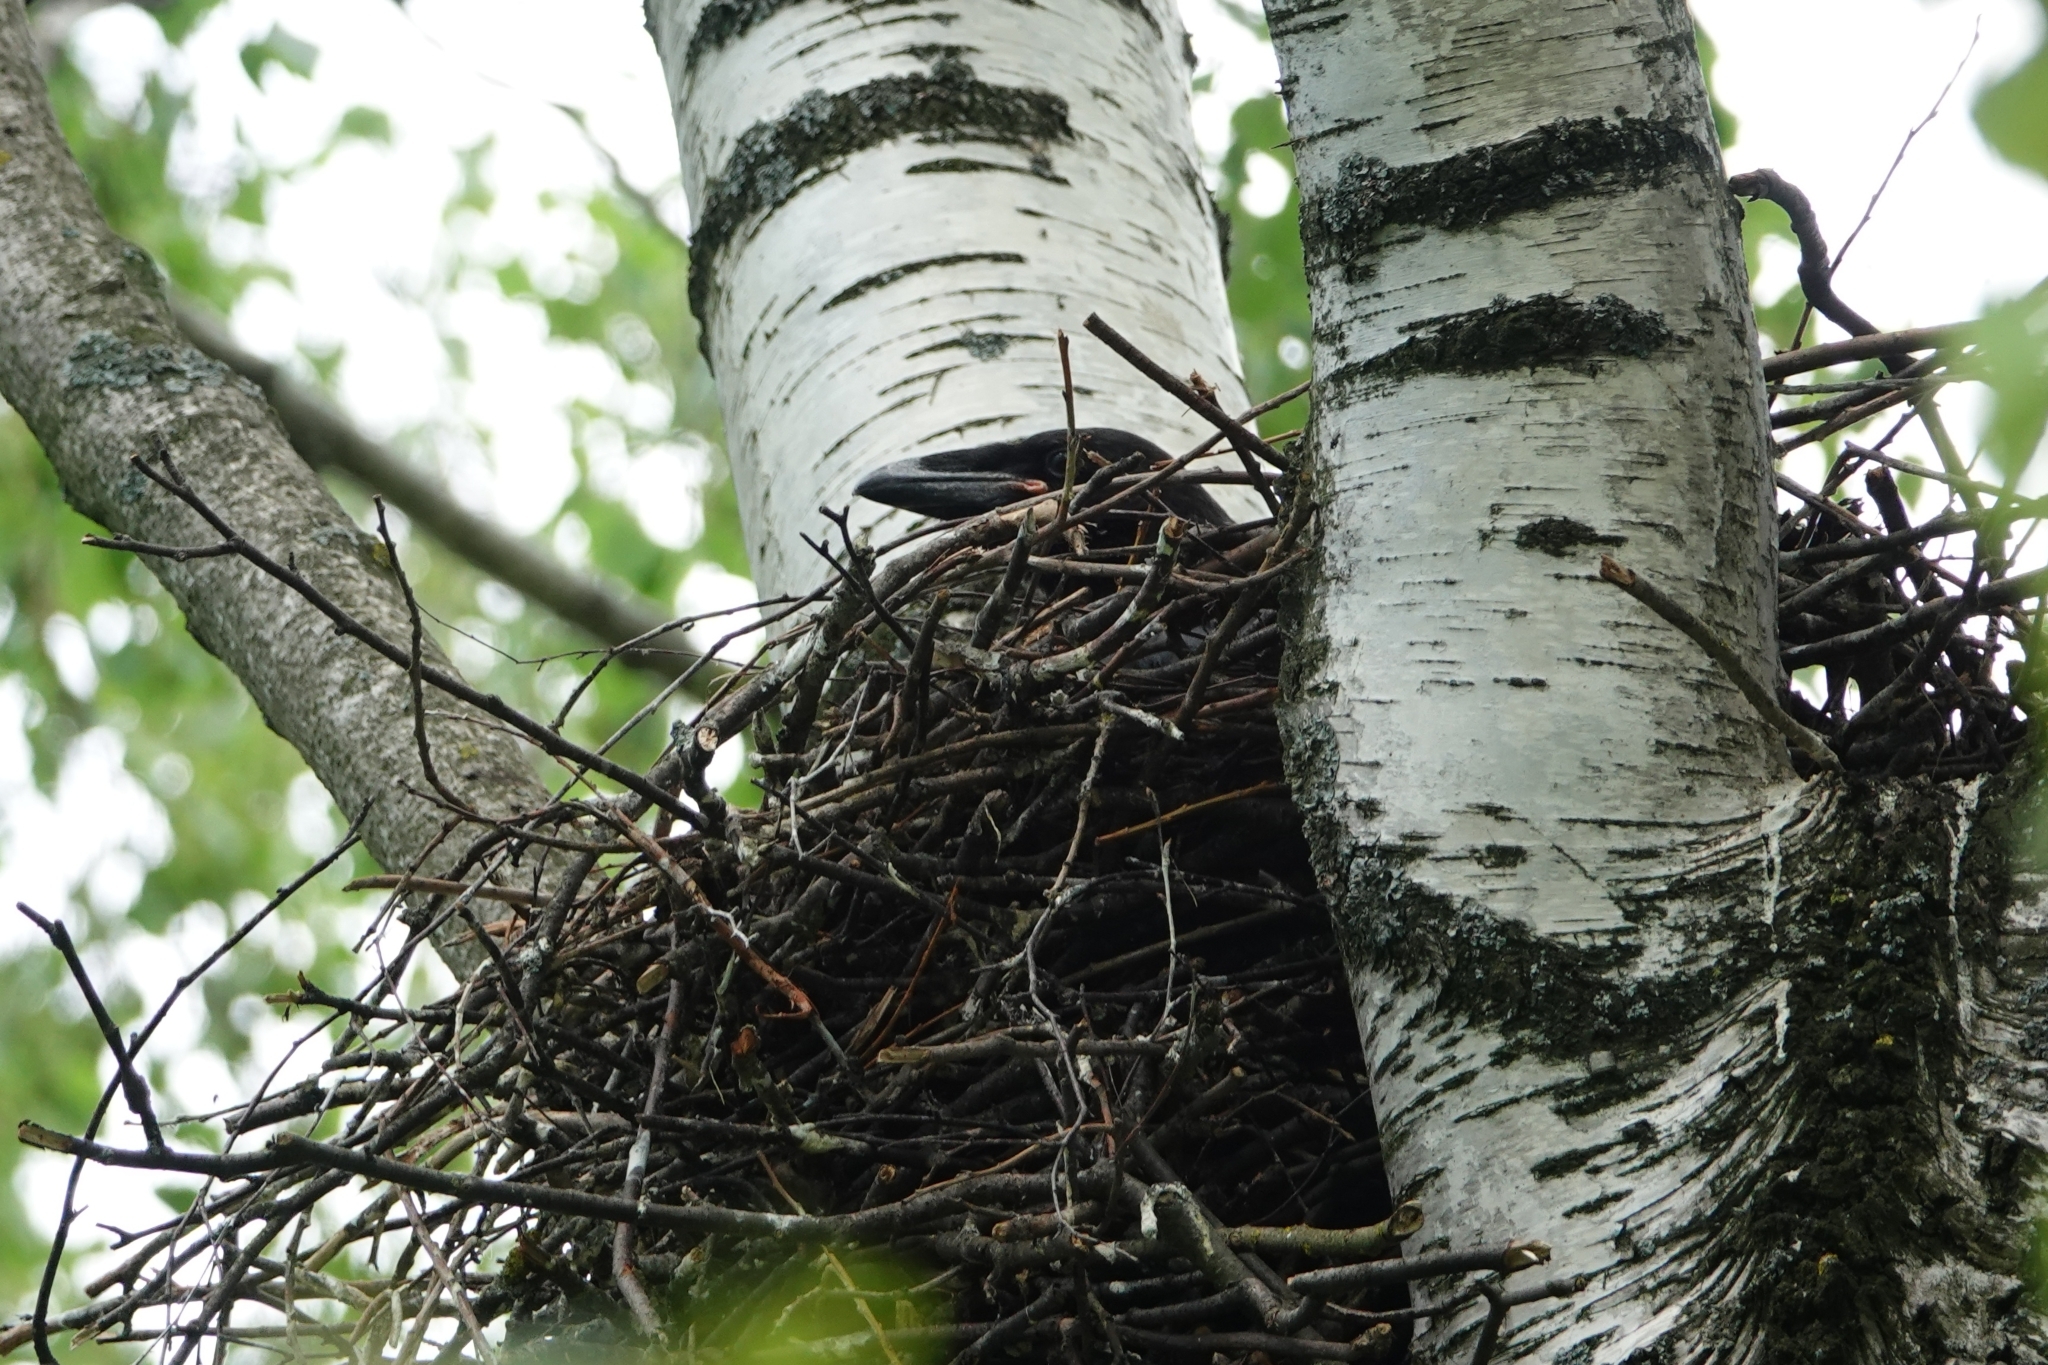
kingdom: Animalia
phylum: Chordata
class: Aves
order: Passeriformes
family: Corvidae
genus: Corvus
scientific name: Corvus corax
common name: Common raven
